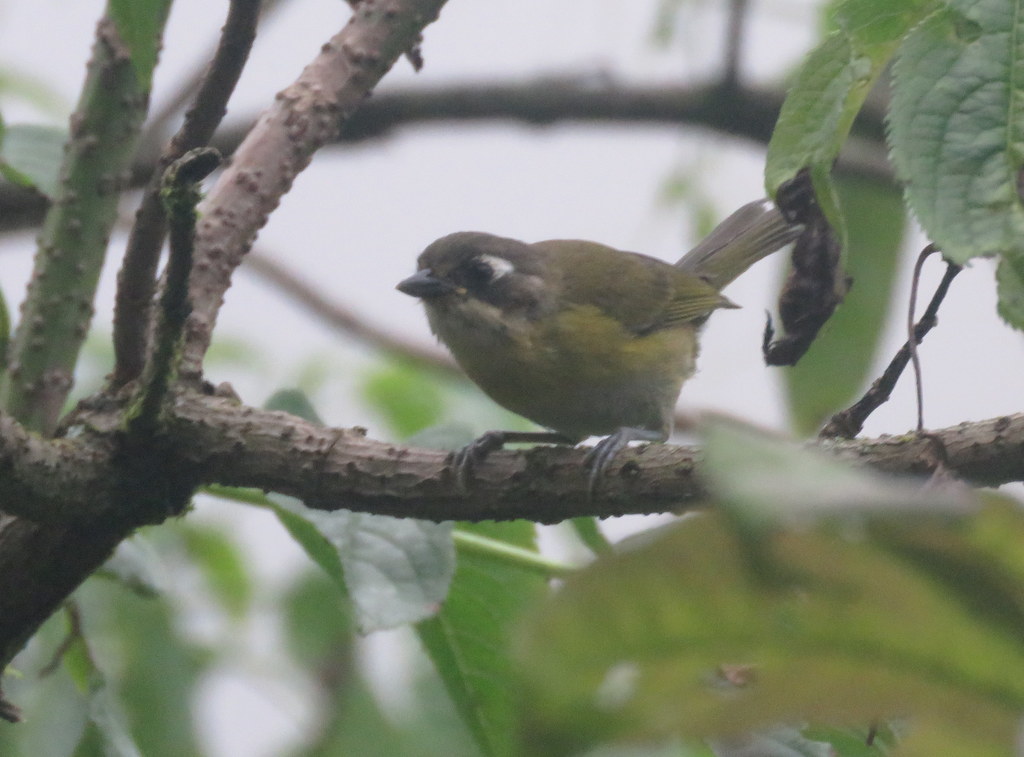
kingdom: Animalia
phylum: Chordata
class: Aves
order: Passeriformes
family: Passerellidae
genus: Chlorospingus
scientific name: Chlorospingus flavopectus
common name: Common chlorospingus
